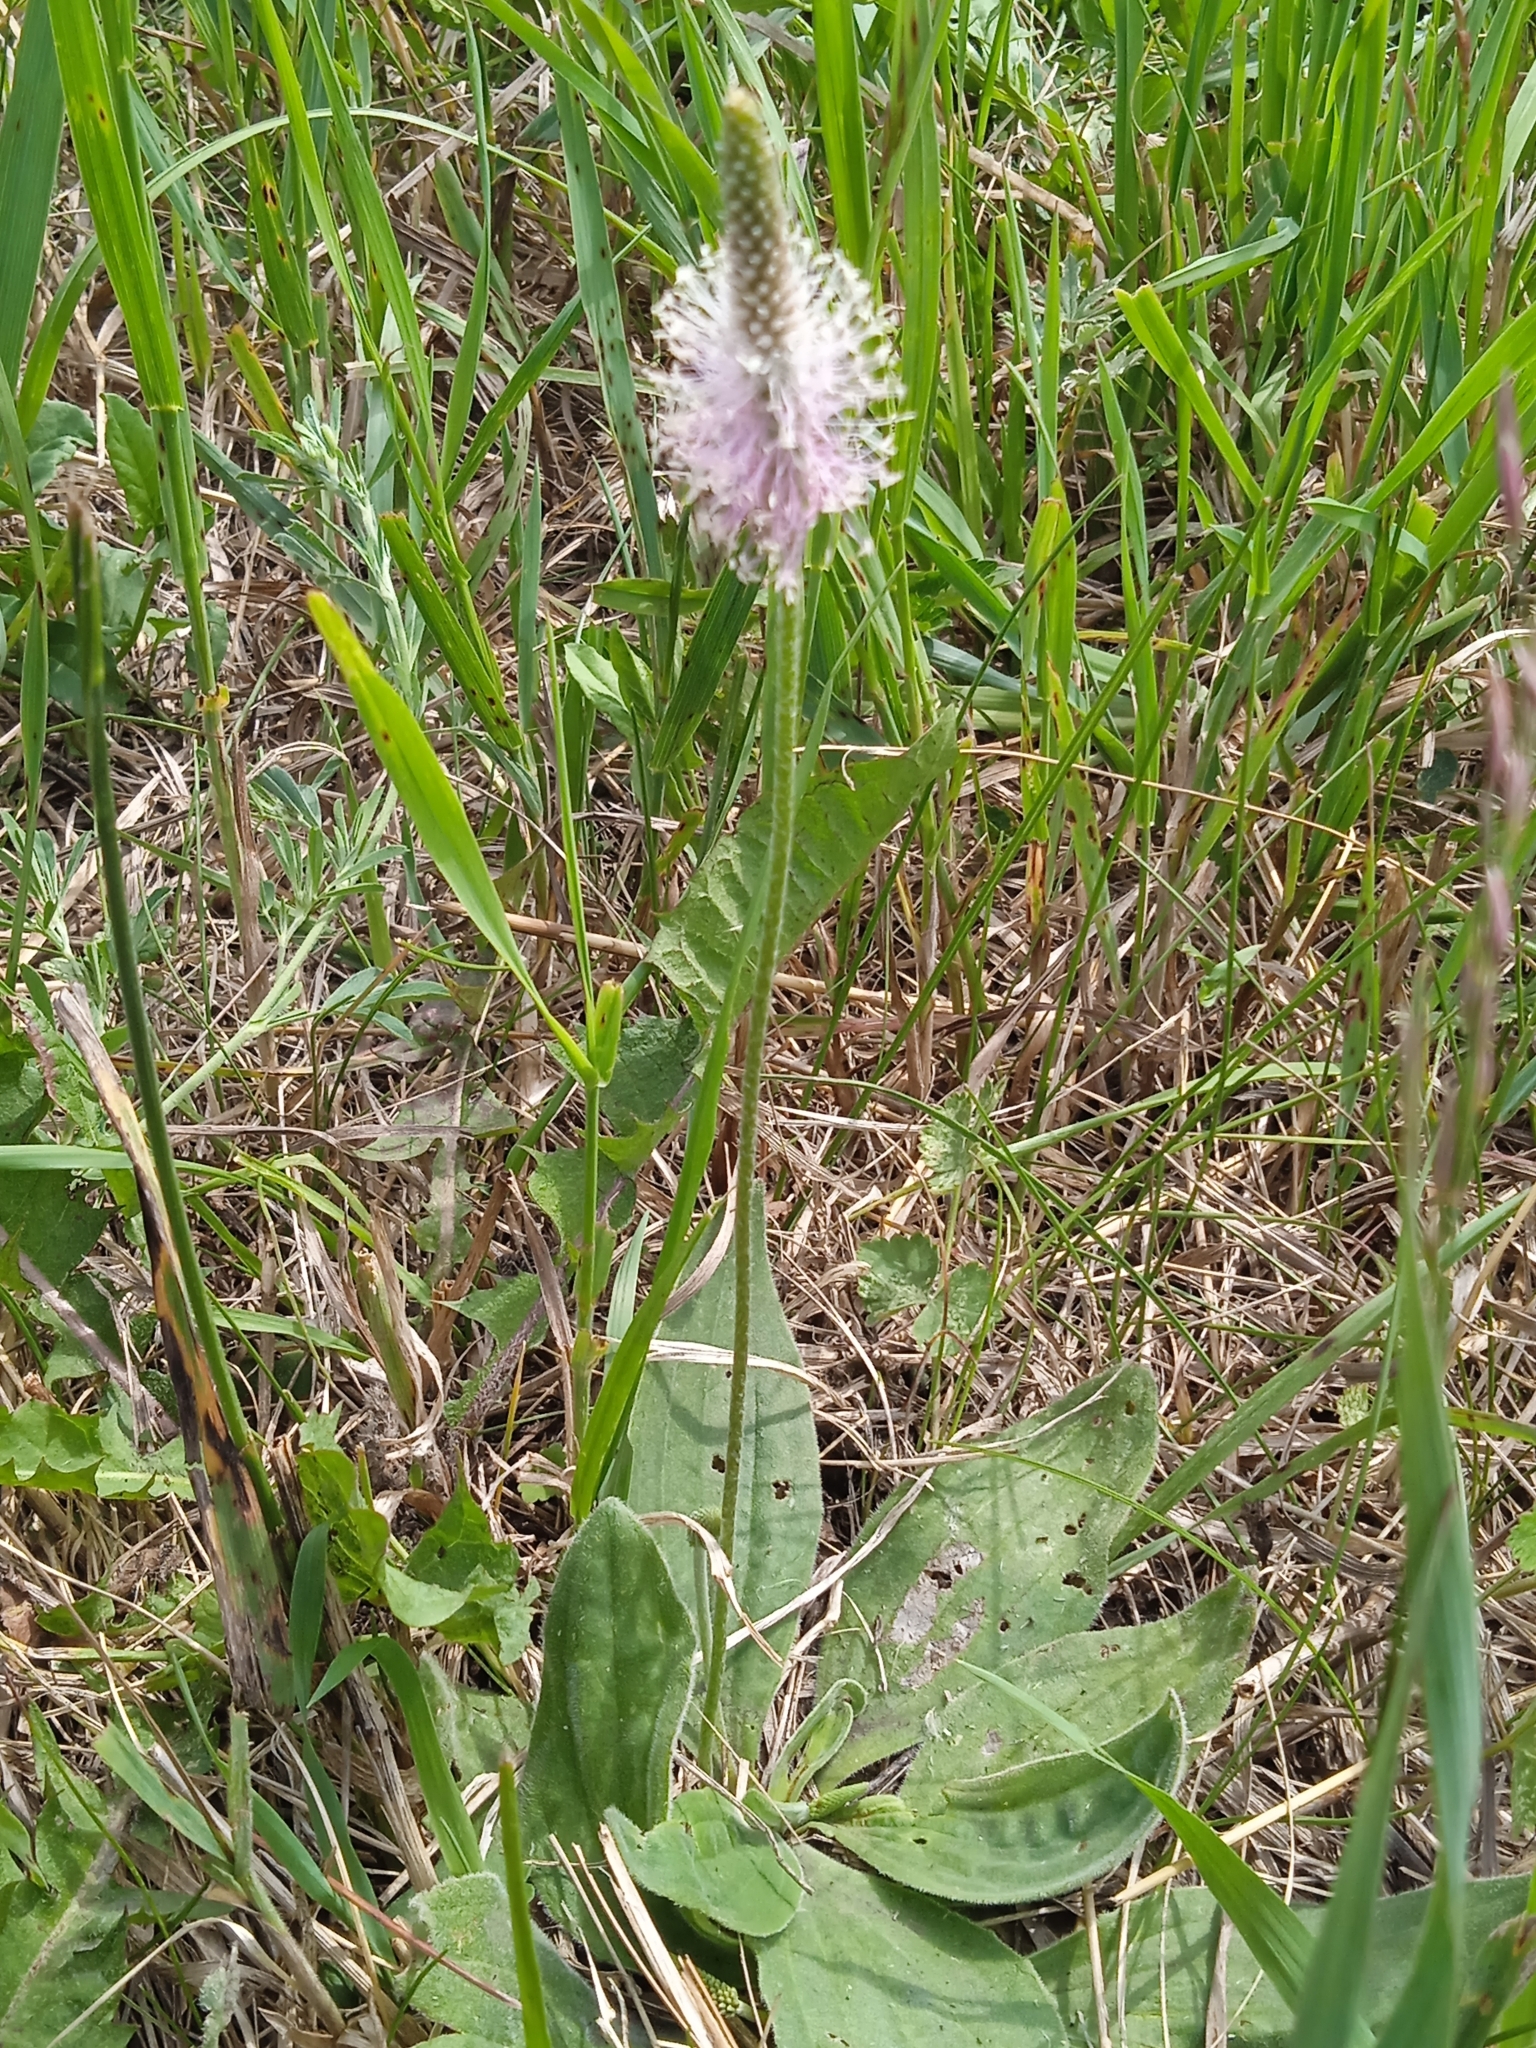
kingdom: Plantae
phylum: Tracheophyta
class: Magnoliopsida
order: Lamiales
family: Plantaginaceae
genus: Plantago
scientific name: Plantago media
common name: Hoary plantain
